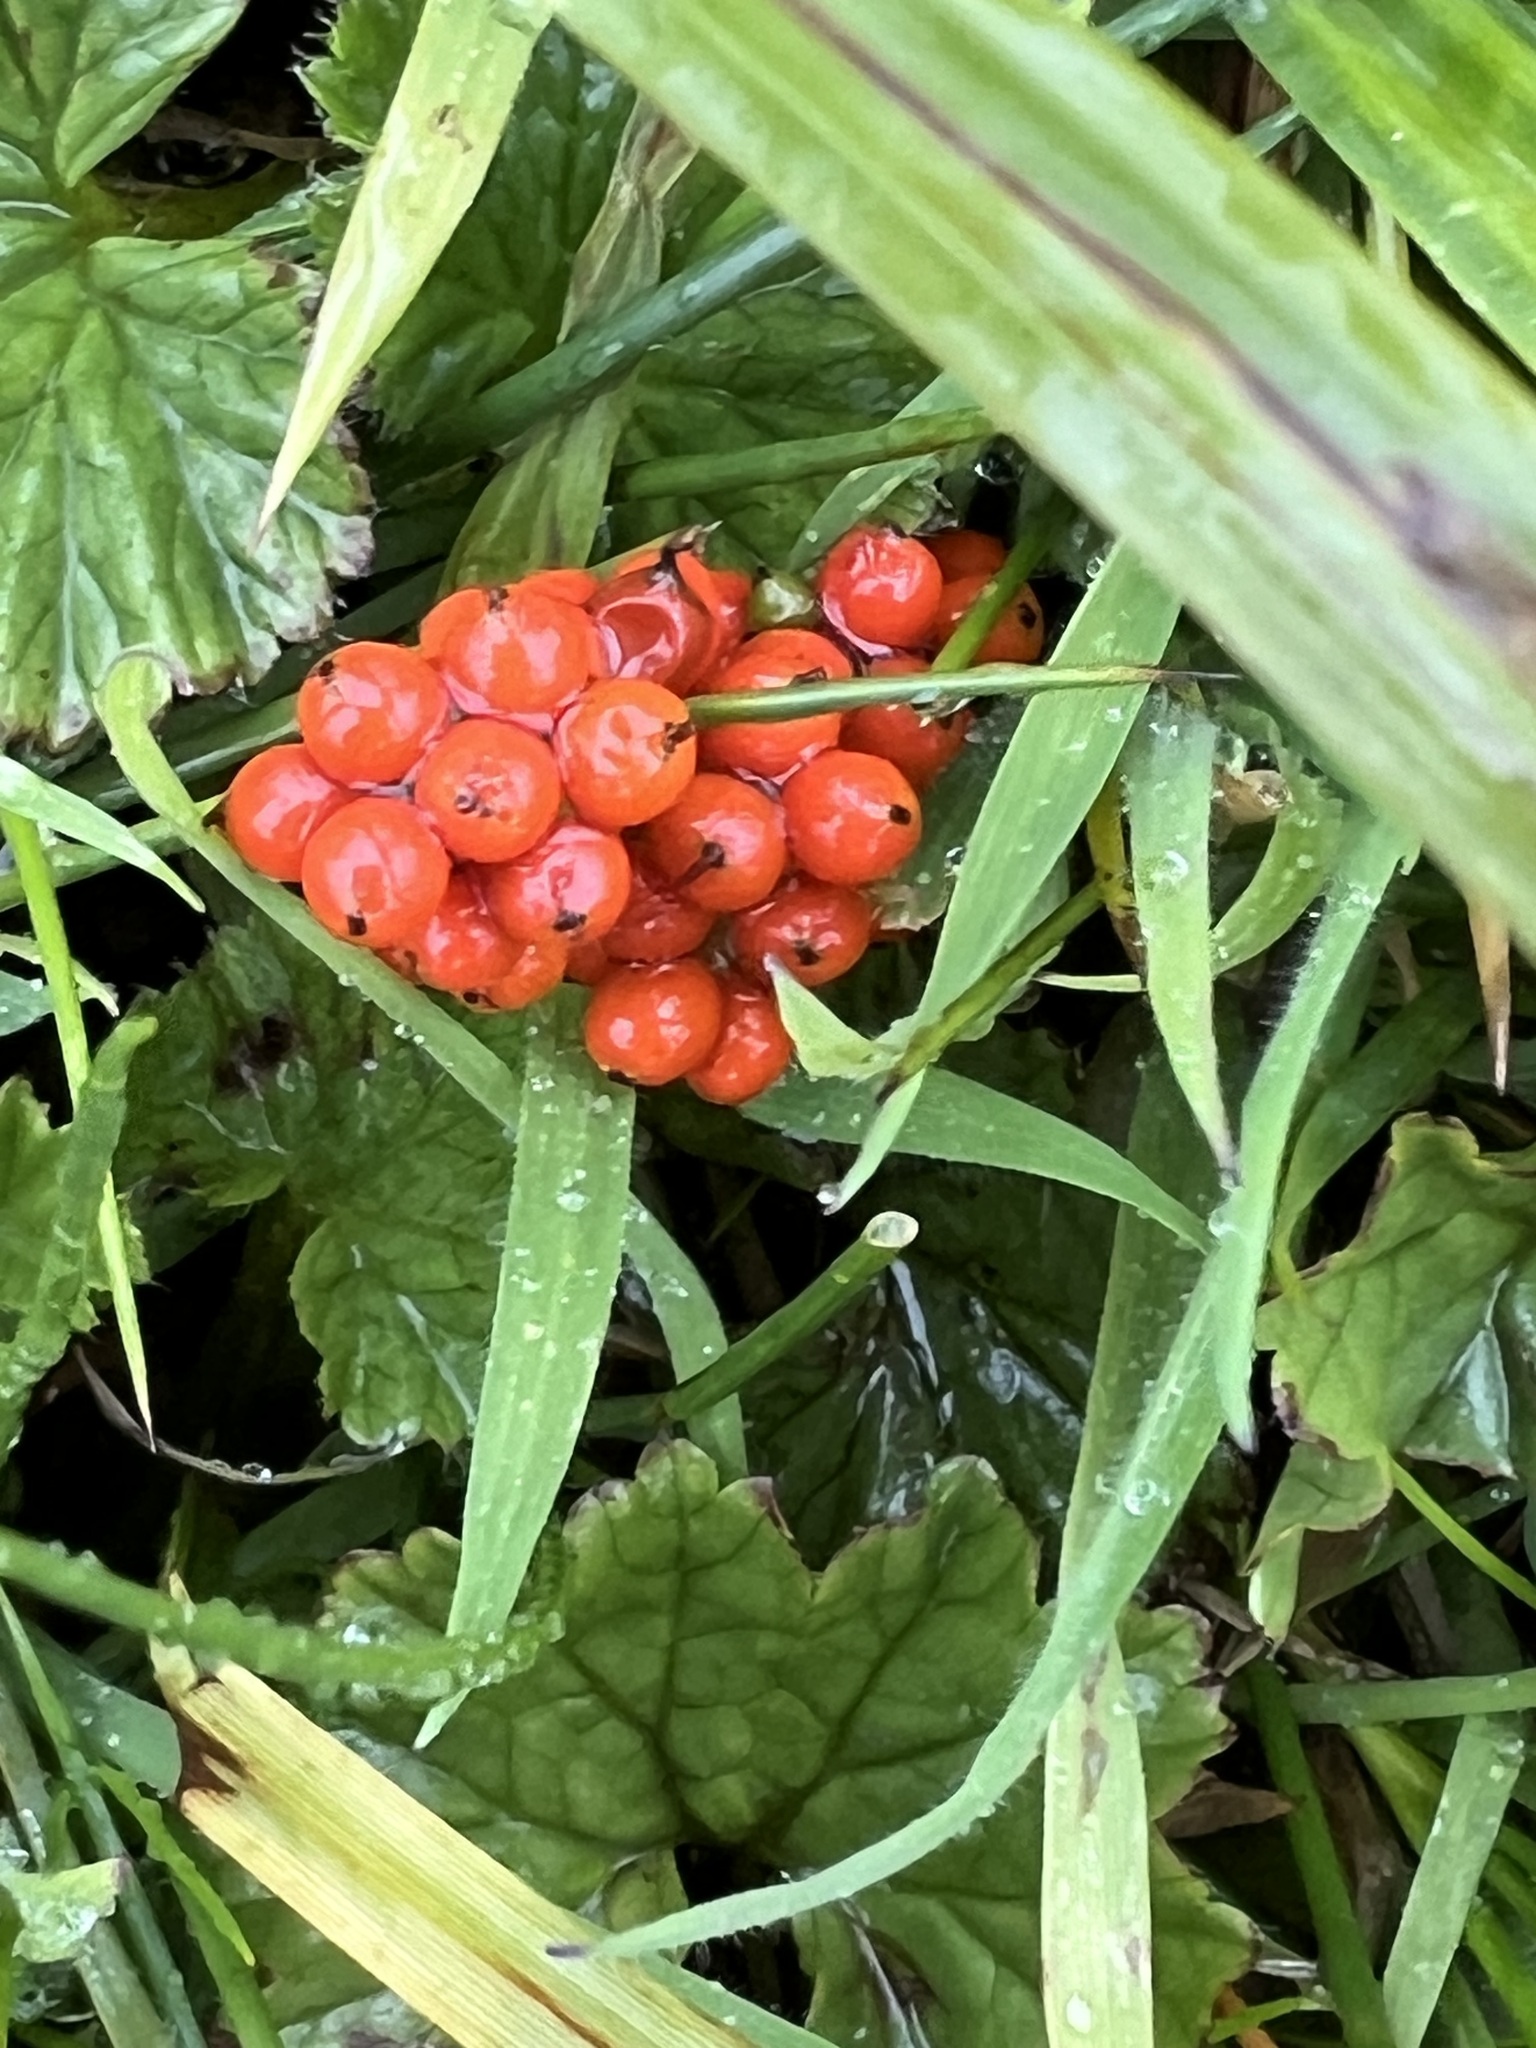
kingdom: Plantae
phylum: Tracheophyta
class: Magnoliopsida
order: Gunnerales
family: Gunneraceae
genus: Gunnera
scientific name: Gunnera magellanica
